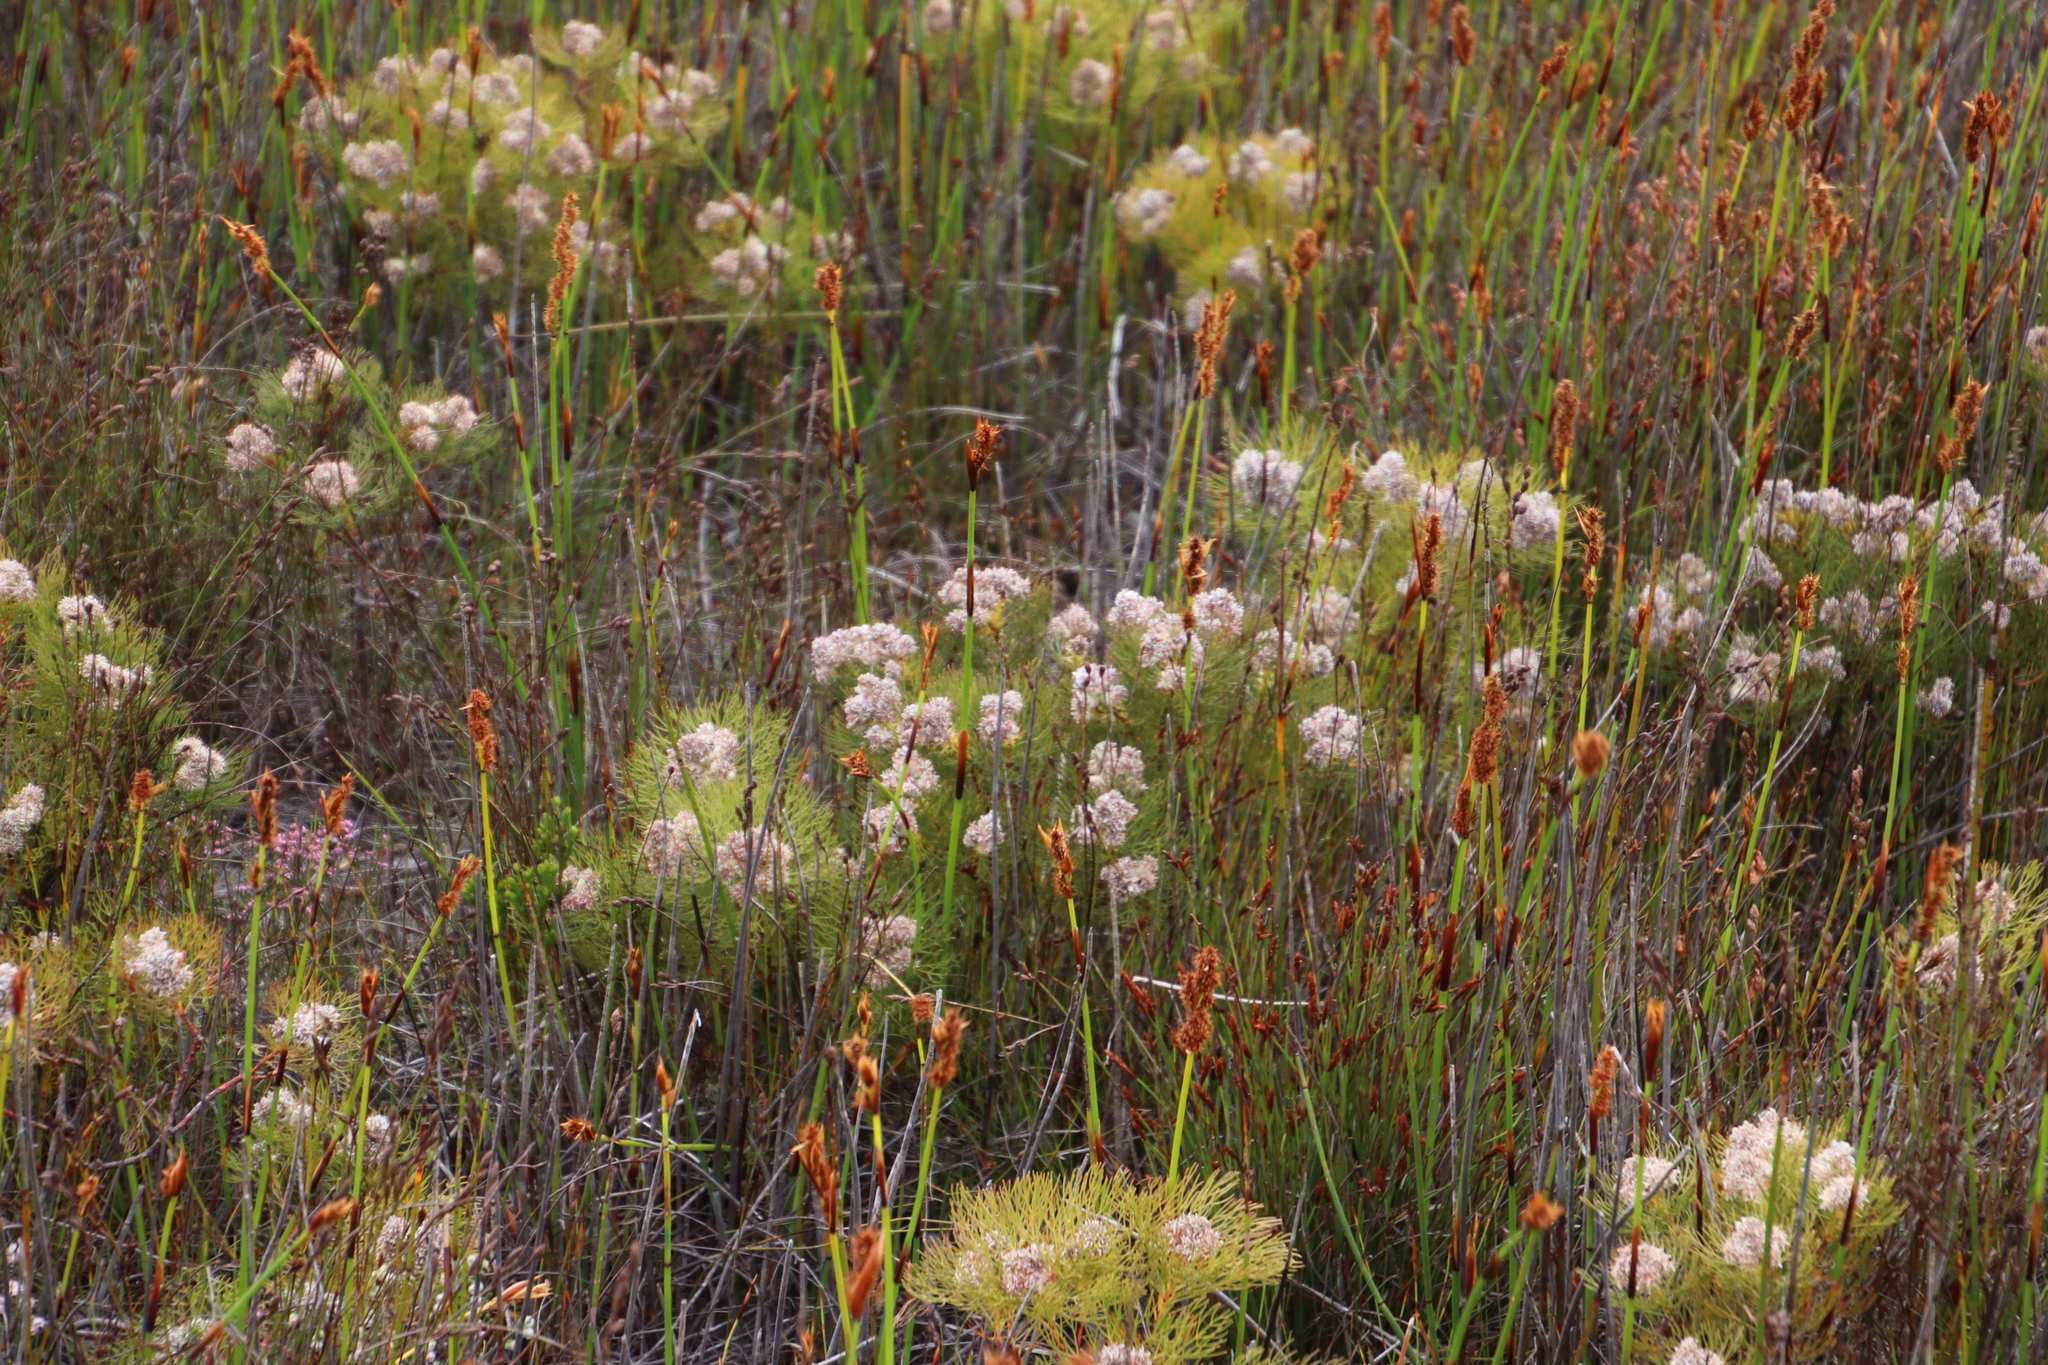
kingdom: Plantae
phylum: Tracheophyta
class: Magnoliopsida
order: Proteales
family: Proteaceae
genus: Serruria
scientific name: Serruria glomerata
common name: Cluster spiderhead
